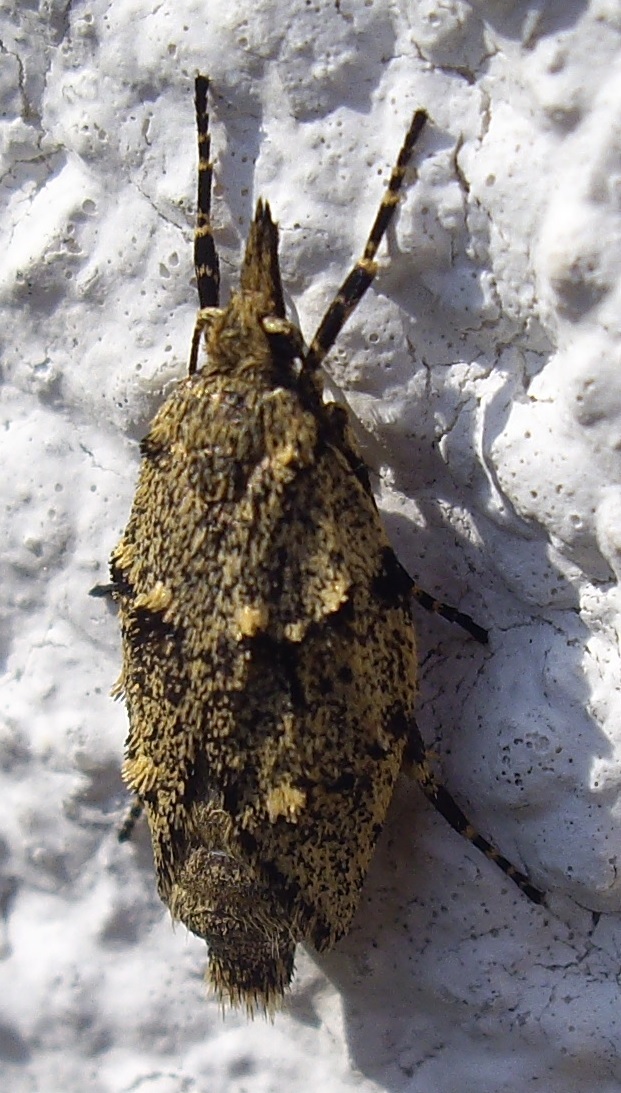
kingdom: Animalia
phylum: Arthropoda
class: Insecta
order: Lepidoptera
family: Lypusidae
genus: Diurnea
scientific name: Diurnea fagella
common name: March tubic
